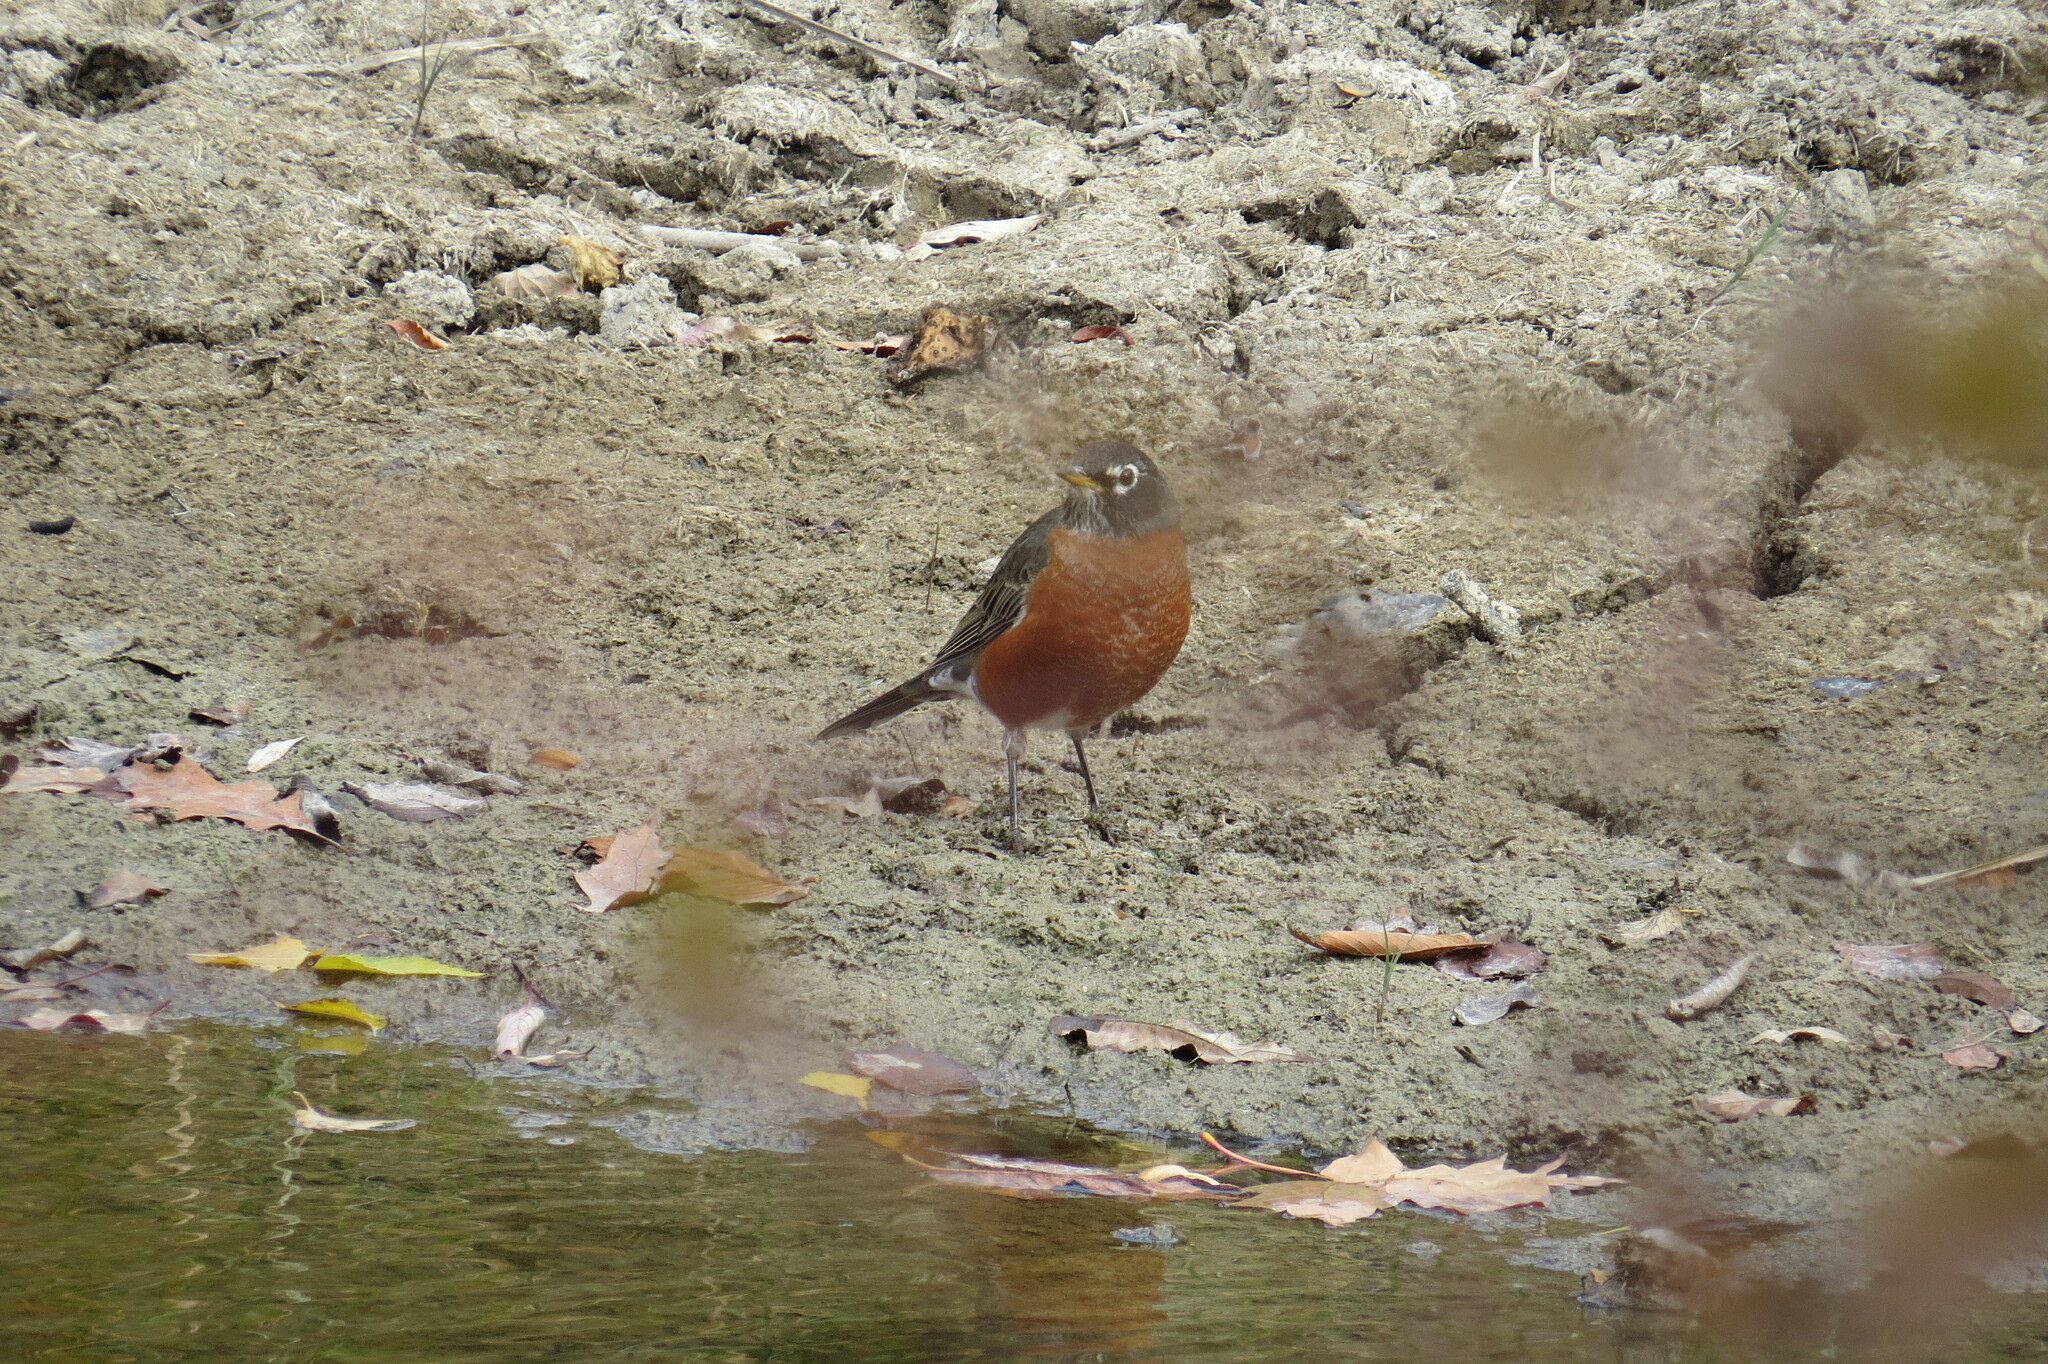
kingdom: Animalia
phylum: Chordata
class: Aves
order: Passeriformes
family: Turdidae
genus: Turdus
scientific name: Turdus migratorius
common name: American robin
